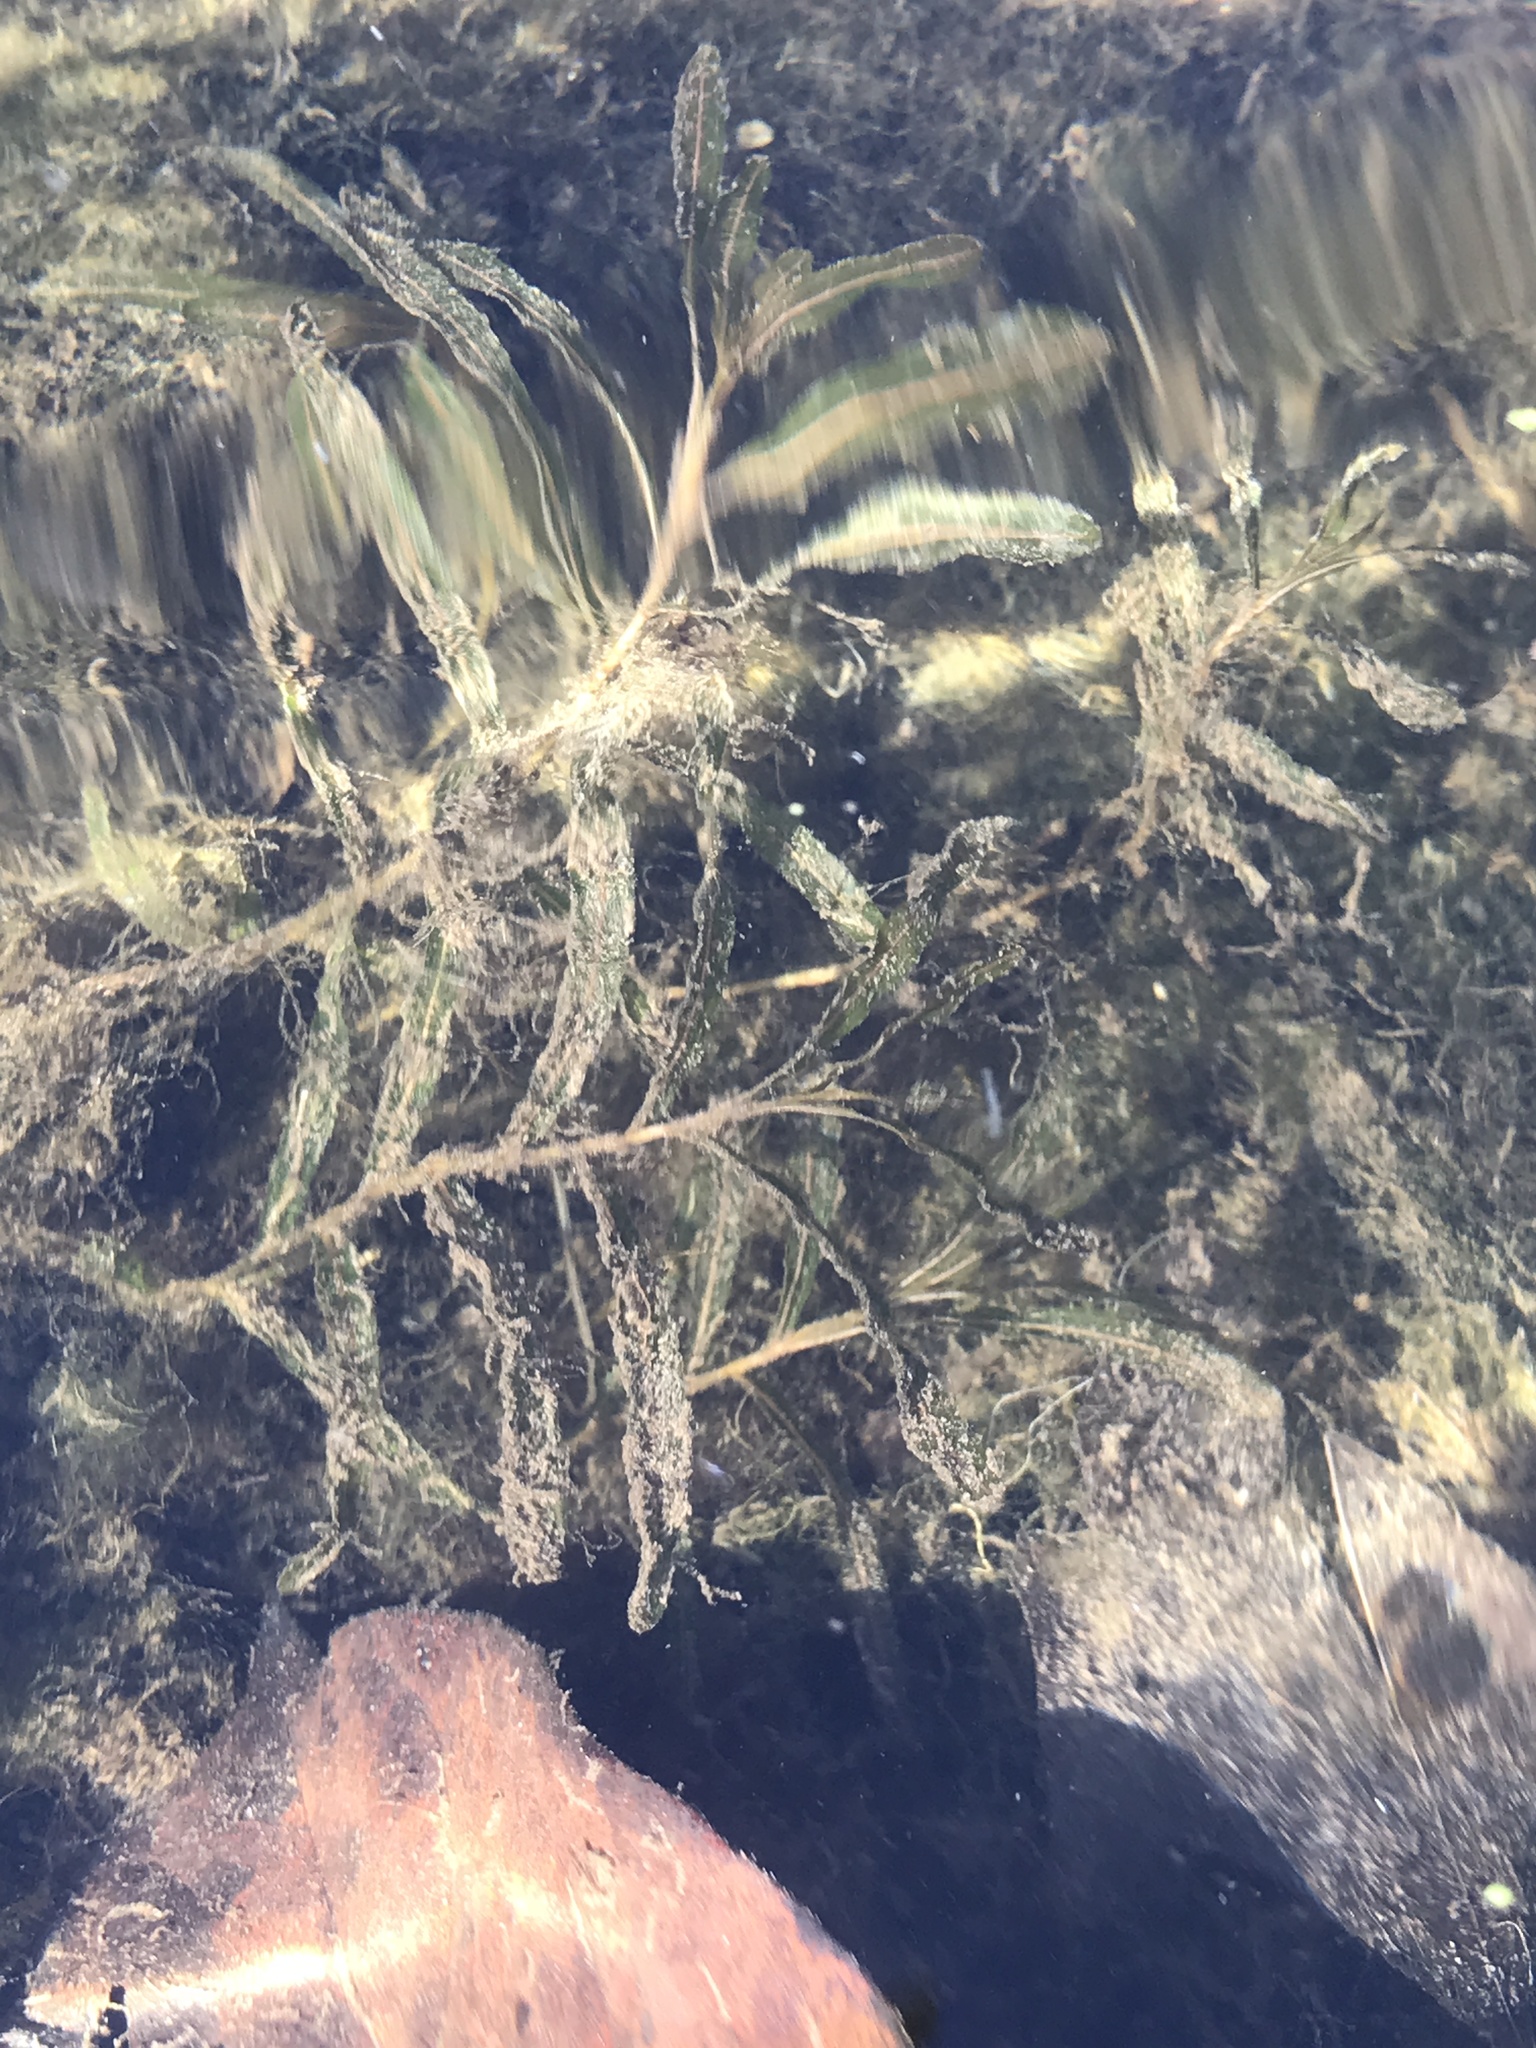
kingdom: Plantae
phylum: Tracheophyta
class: Liliopsida
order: Alismatales
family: Potamogetonaceae
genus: Potamogeton
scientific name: Potamogeton crispus
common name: Curled pondweed
